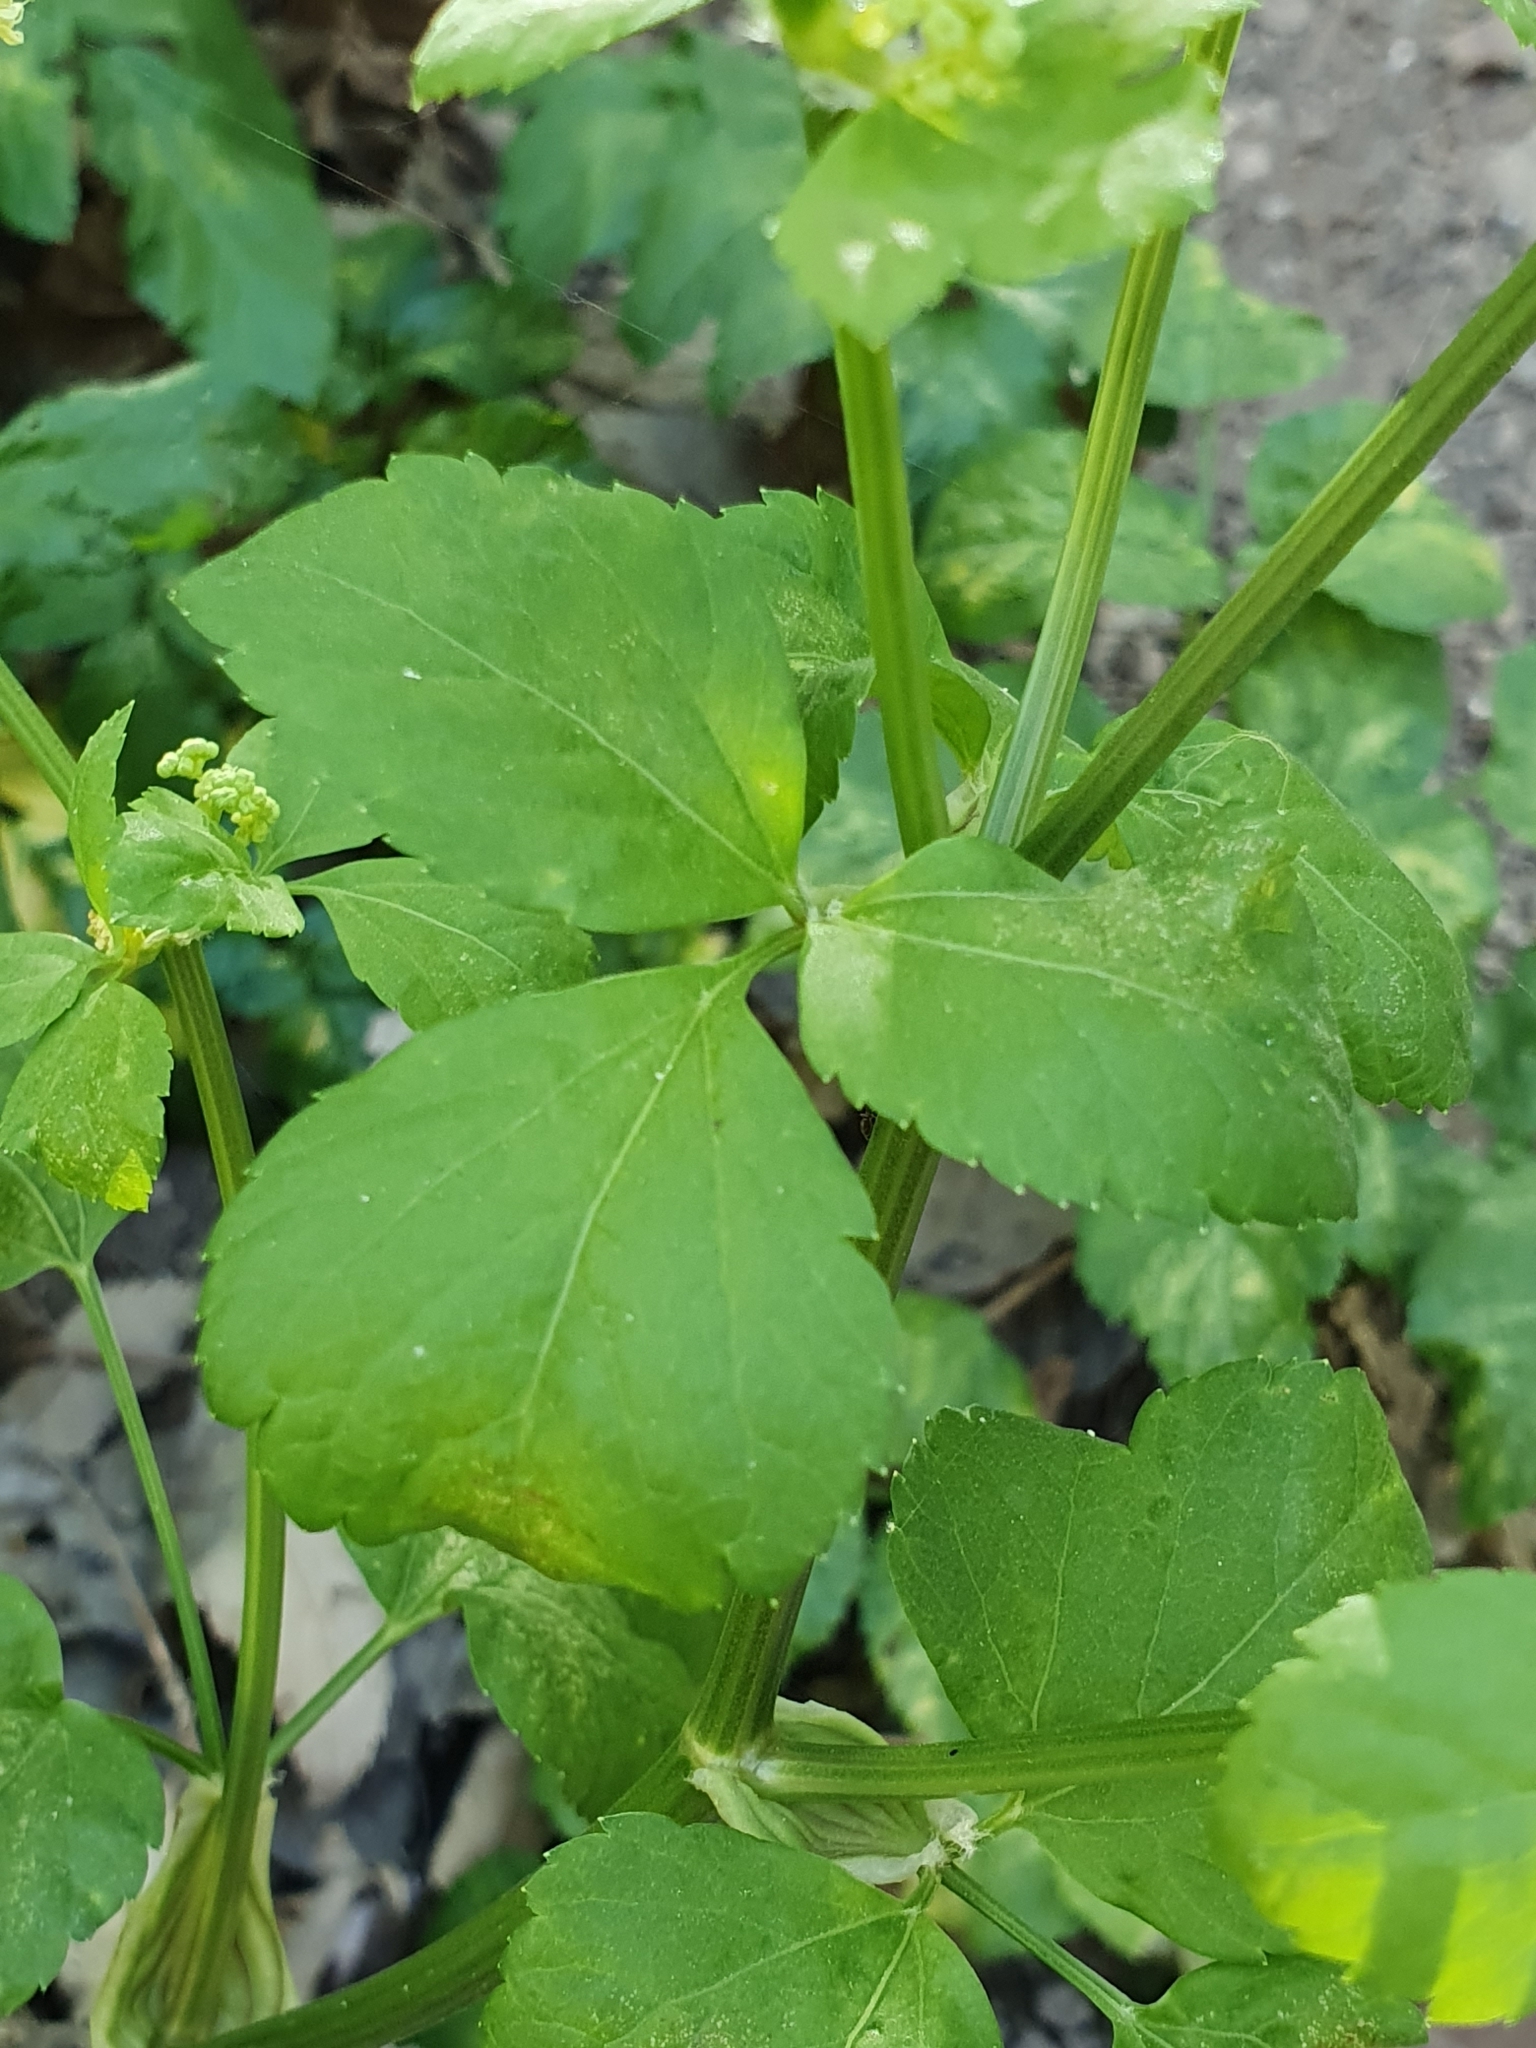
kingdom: Plantae
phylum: Tracheophyta
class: Magnoliopsida
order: Apiales
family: Apiaceae
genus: Smyrnium
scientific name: Smyrnium olusatrum
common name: Alexanders
